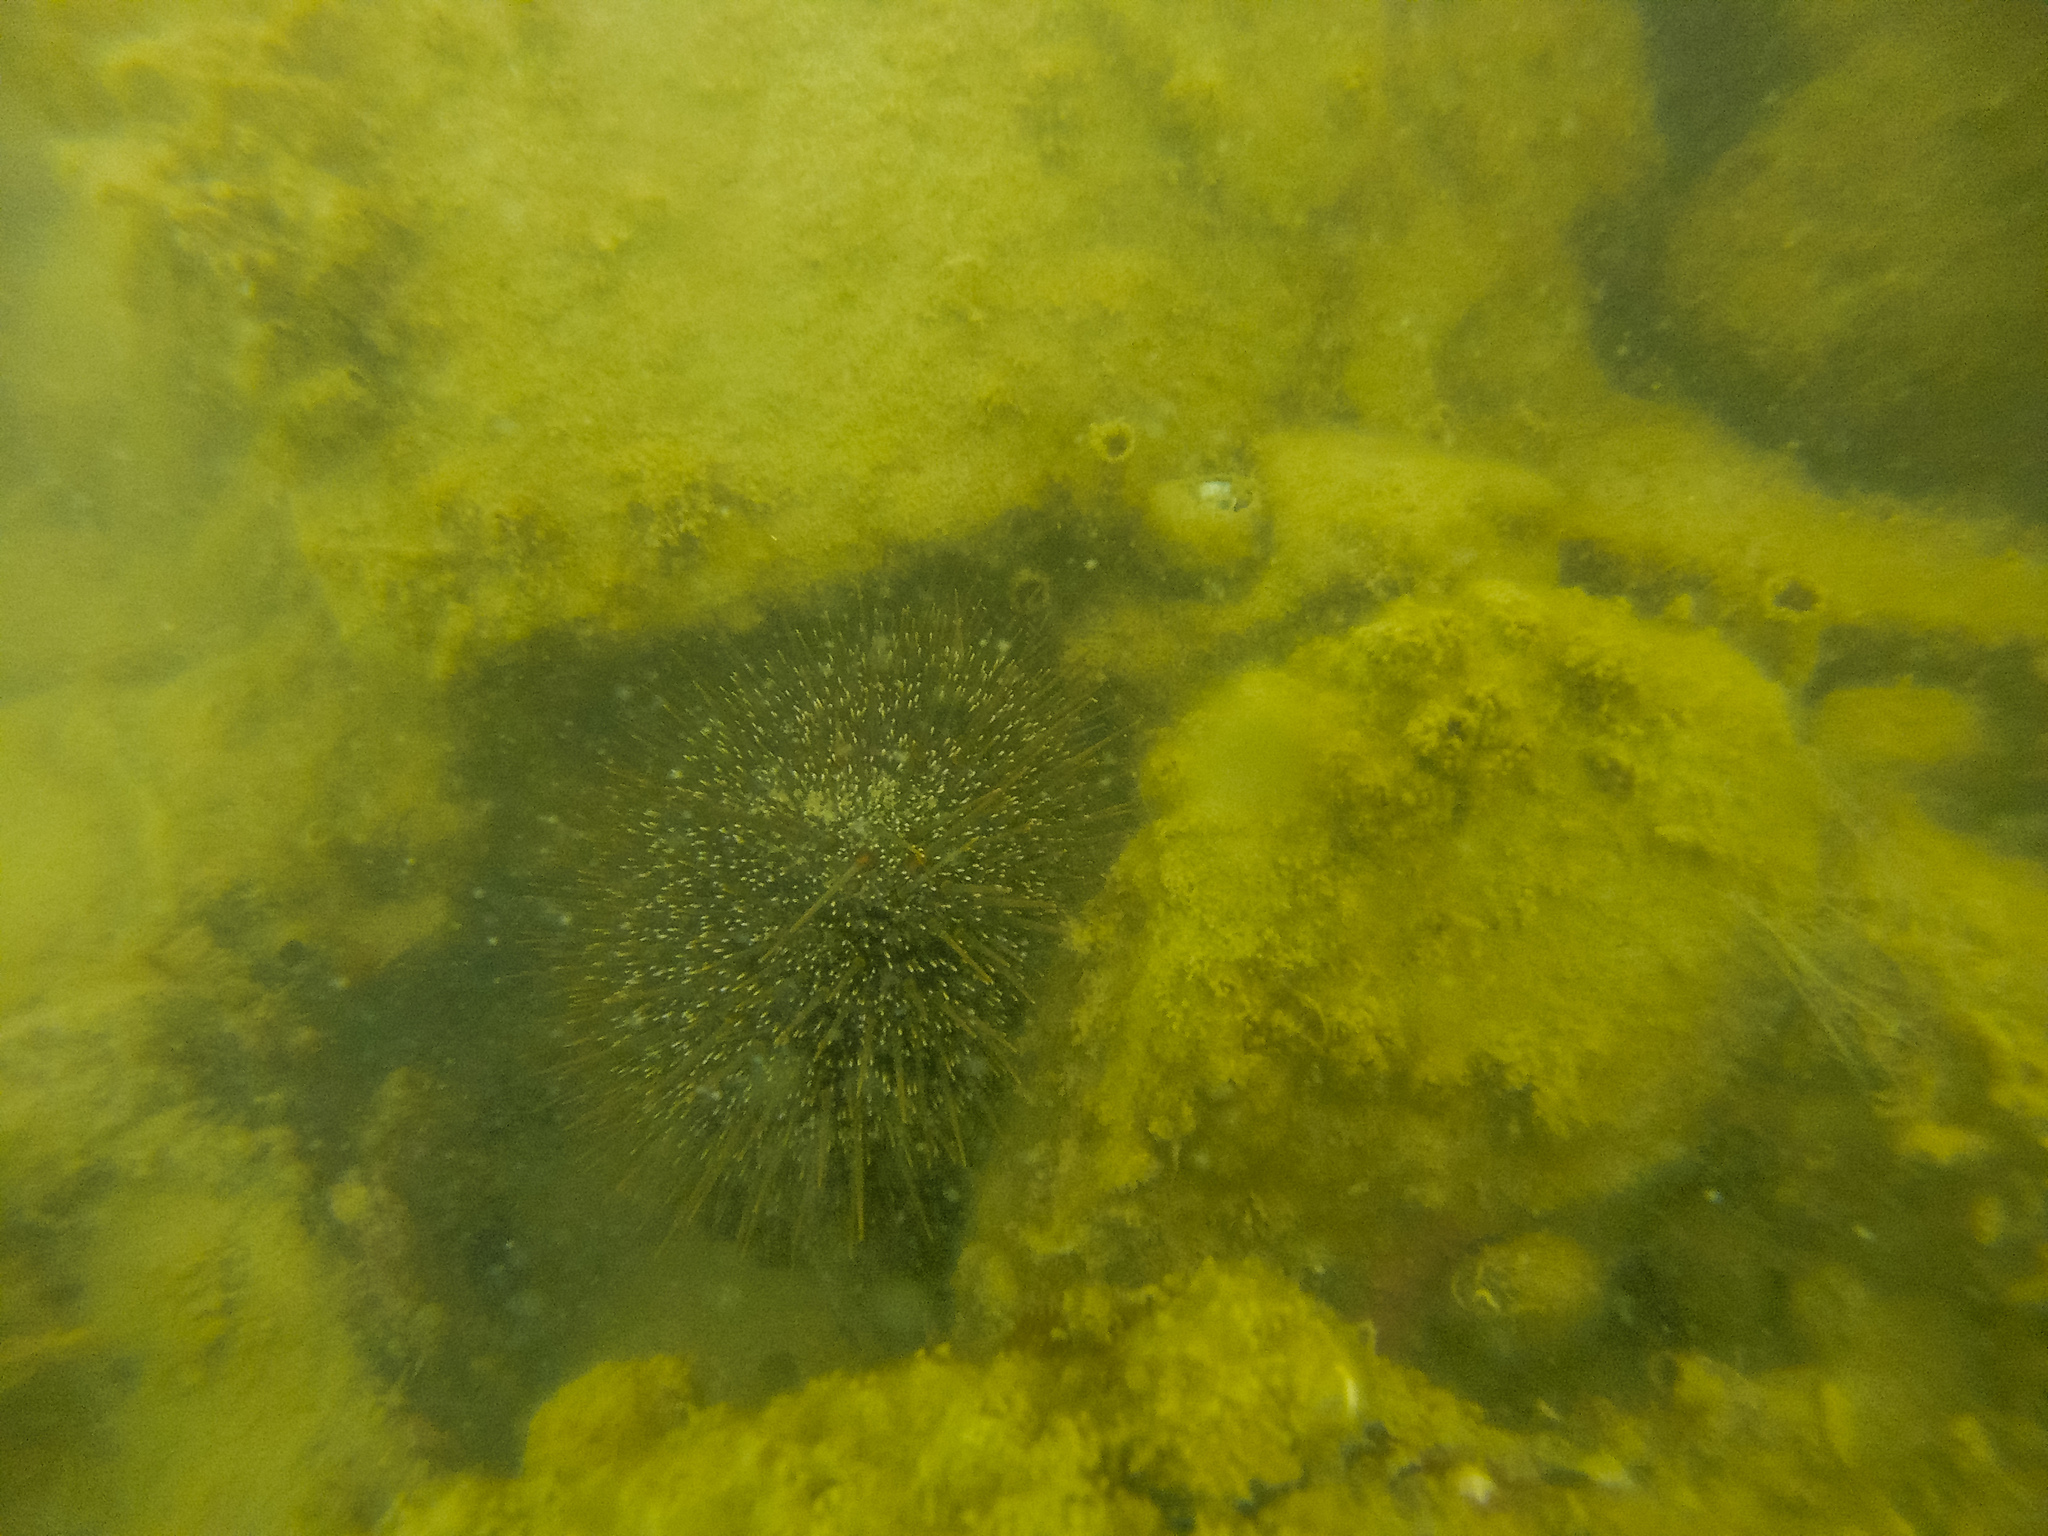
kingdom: Animalia
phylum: Echinodermata
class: Echinoidea
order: Camarodonta
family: Echinometridae
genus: Evechinus
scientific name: Evechinus chloroticus
